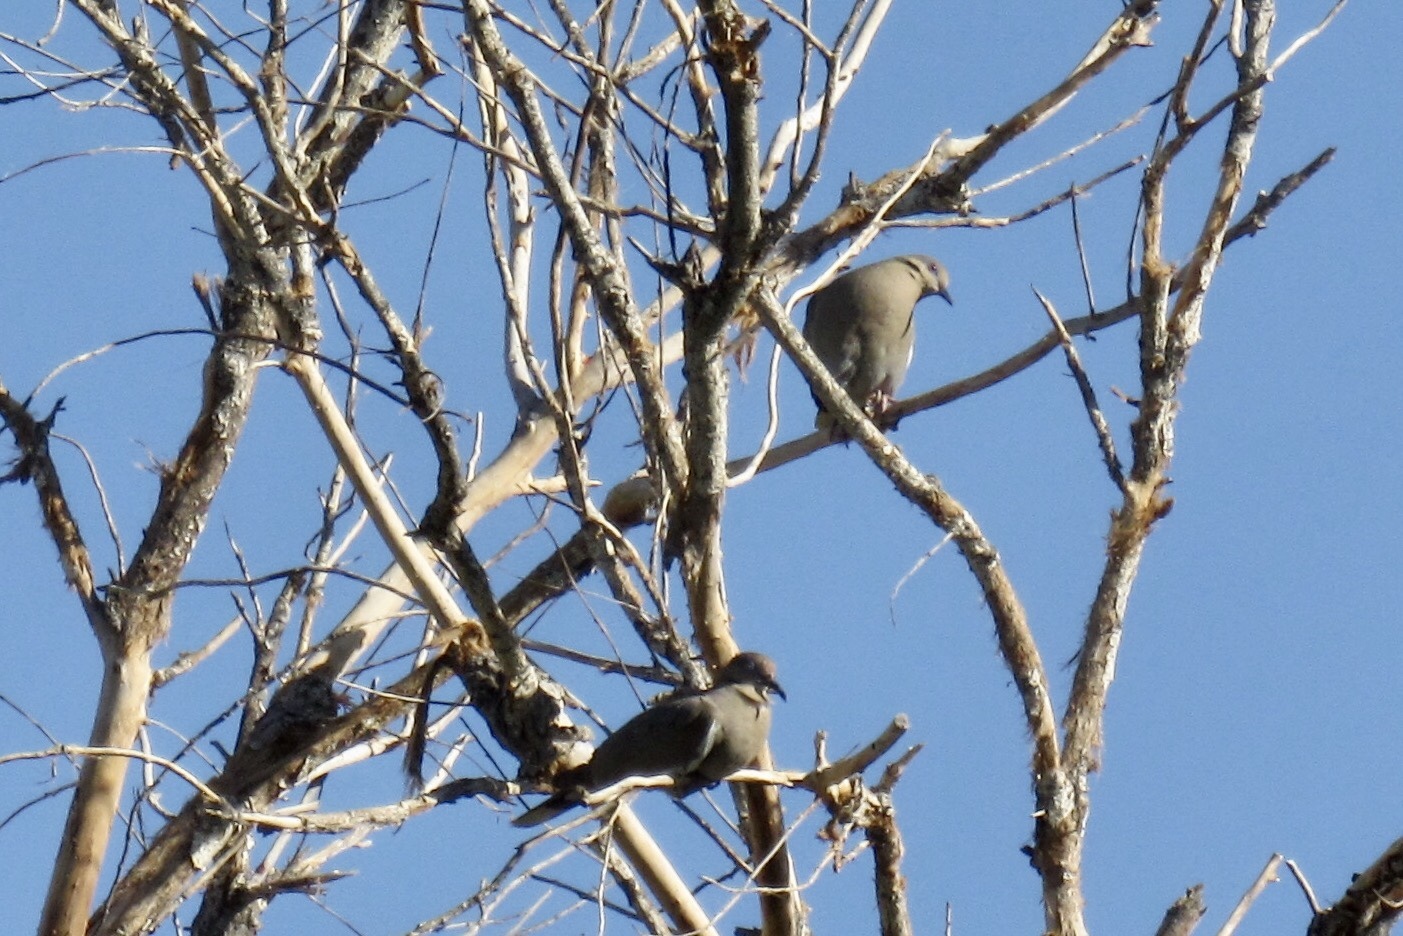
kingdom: Animalia
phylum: Chordata
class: Aves
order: Columbiformes
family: Columbidae
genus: Zenaida
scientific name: Zenaida asiatica
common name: White-winged dove
